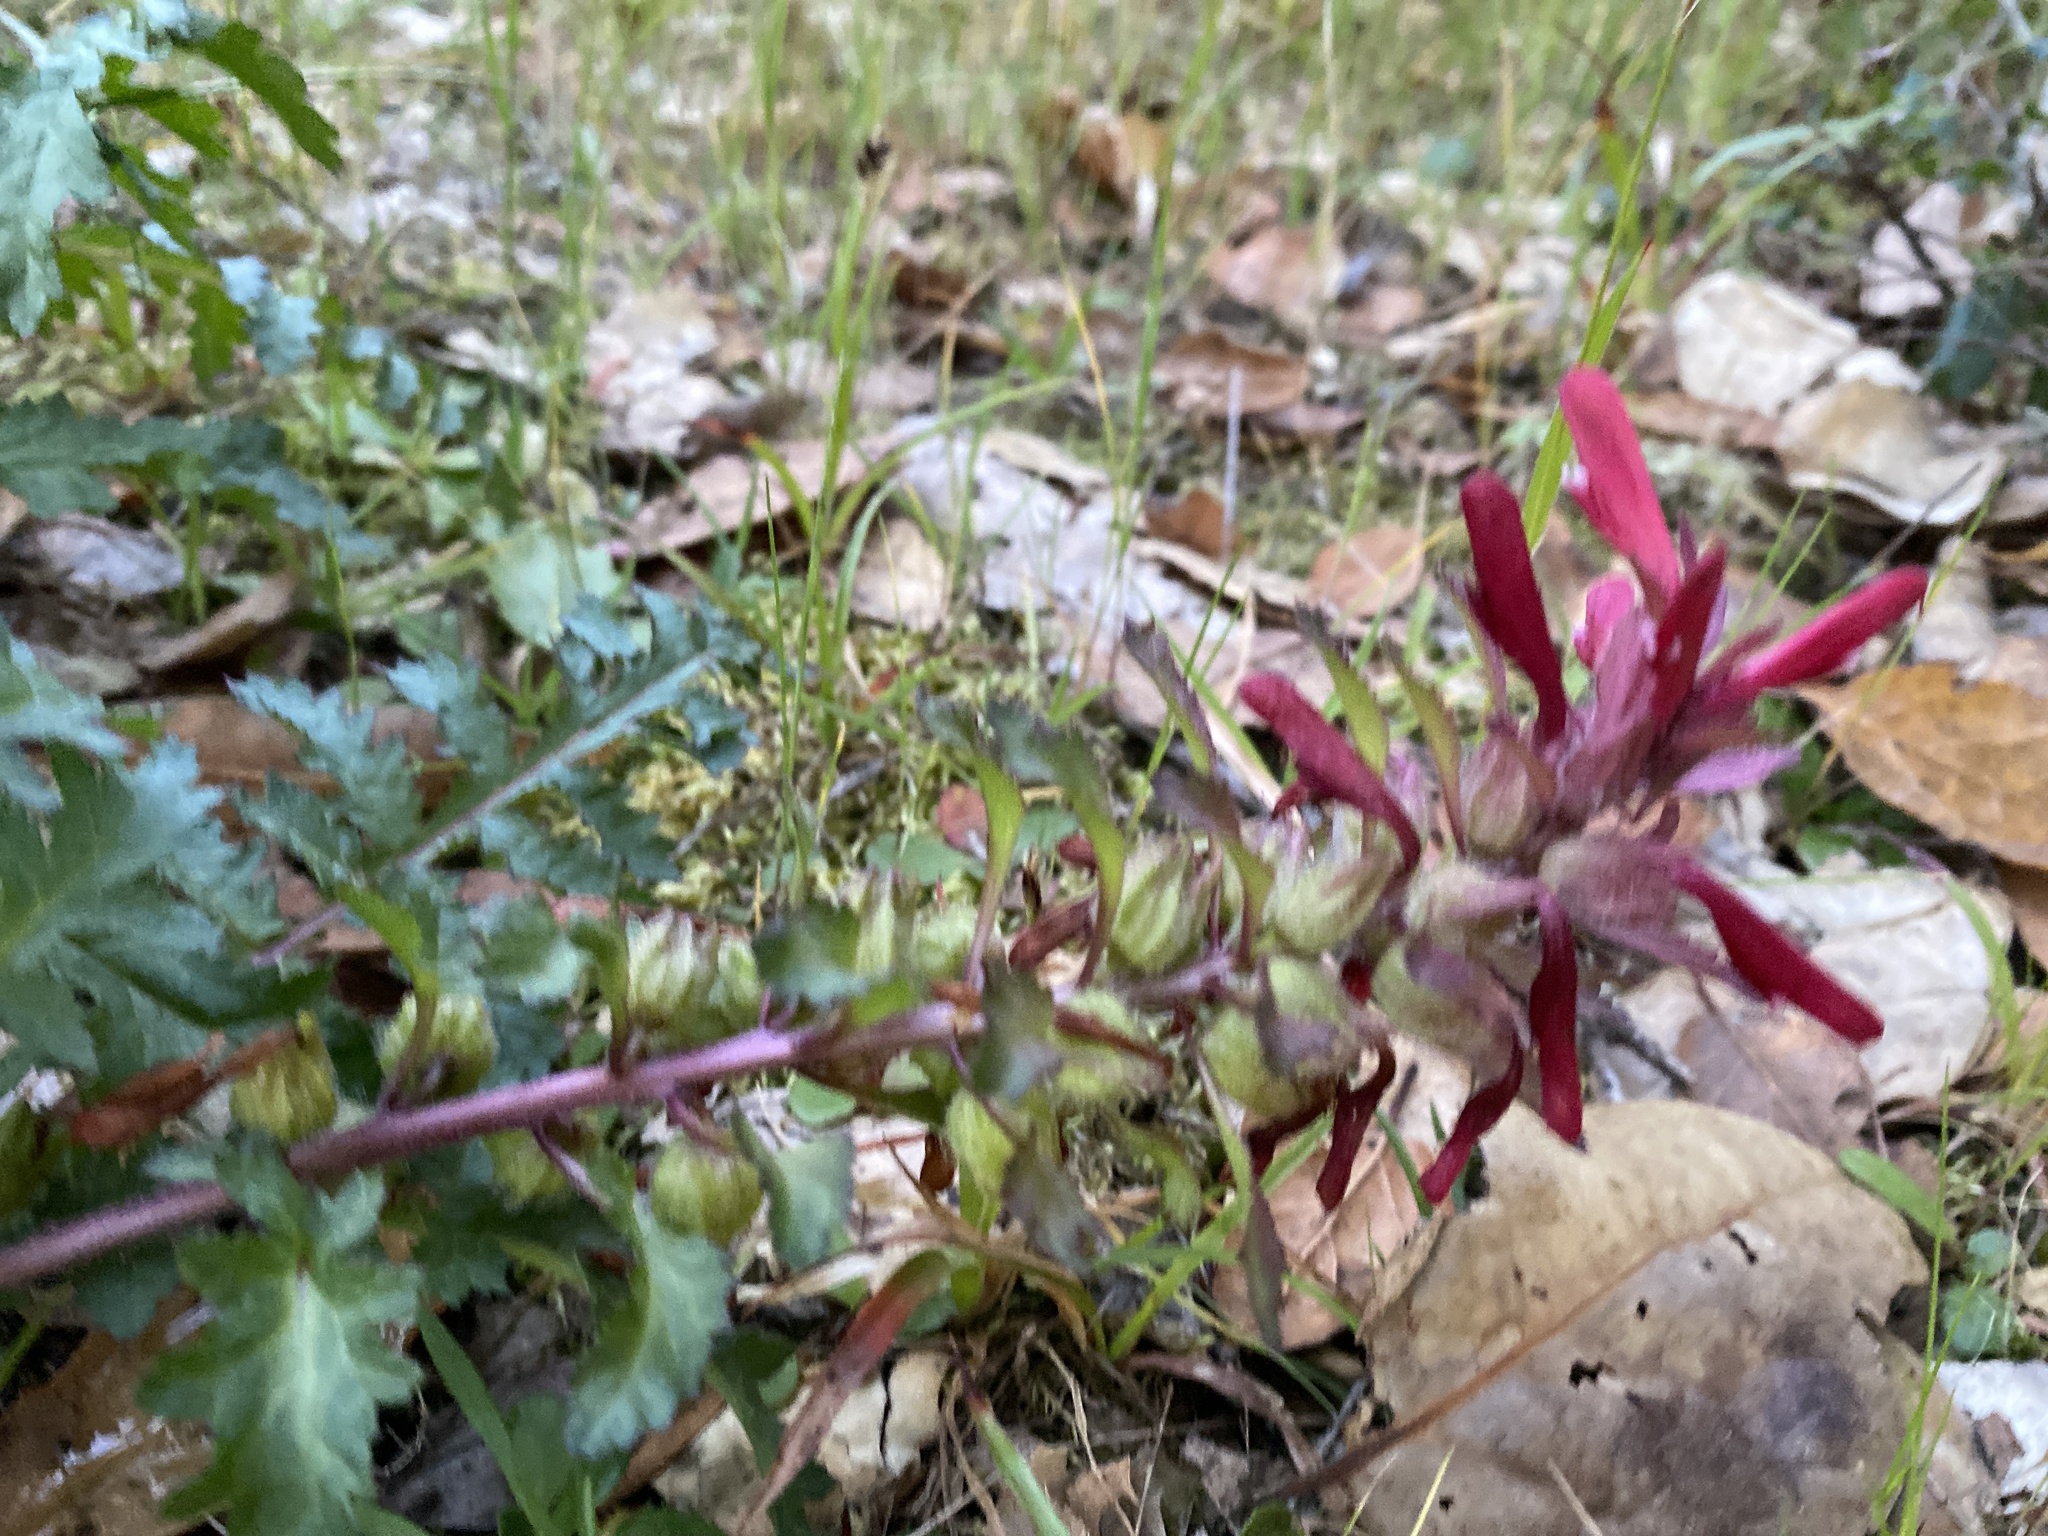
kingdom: Plantae
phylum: Tracheophyta
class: Magnoliopsida
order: Lamiales
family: Orobanchaceae
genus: Pedicularis
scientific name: Pedicularis densiflora
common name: Indian warrior
